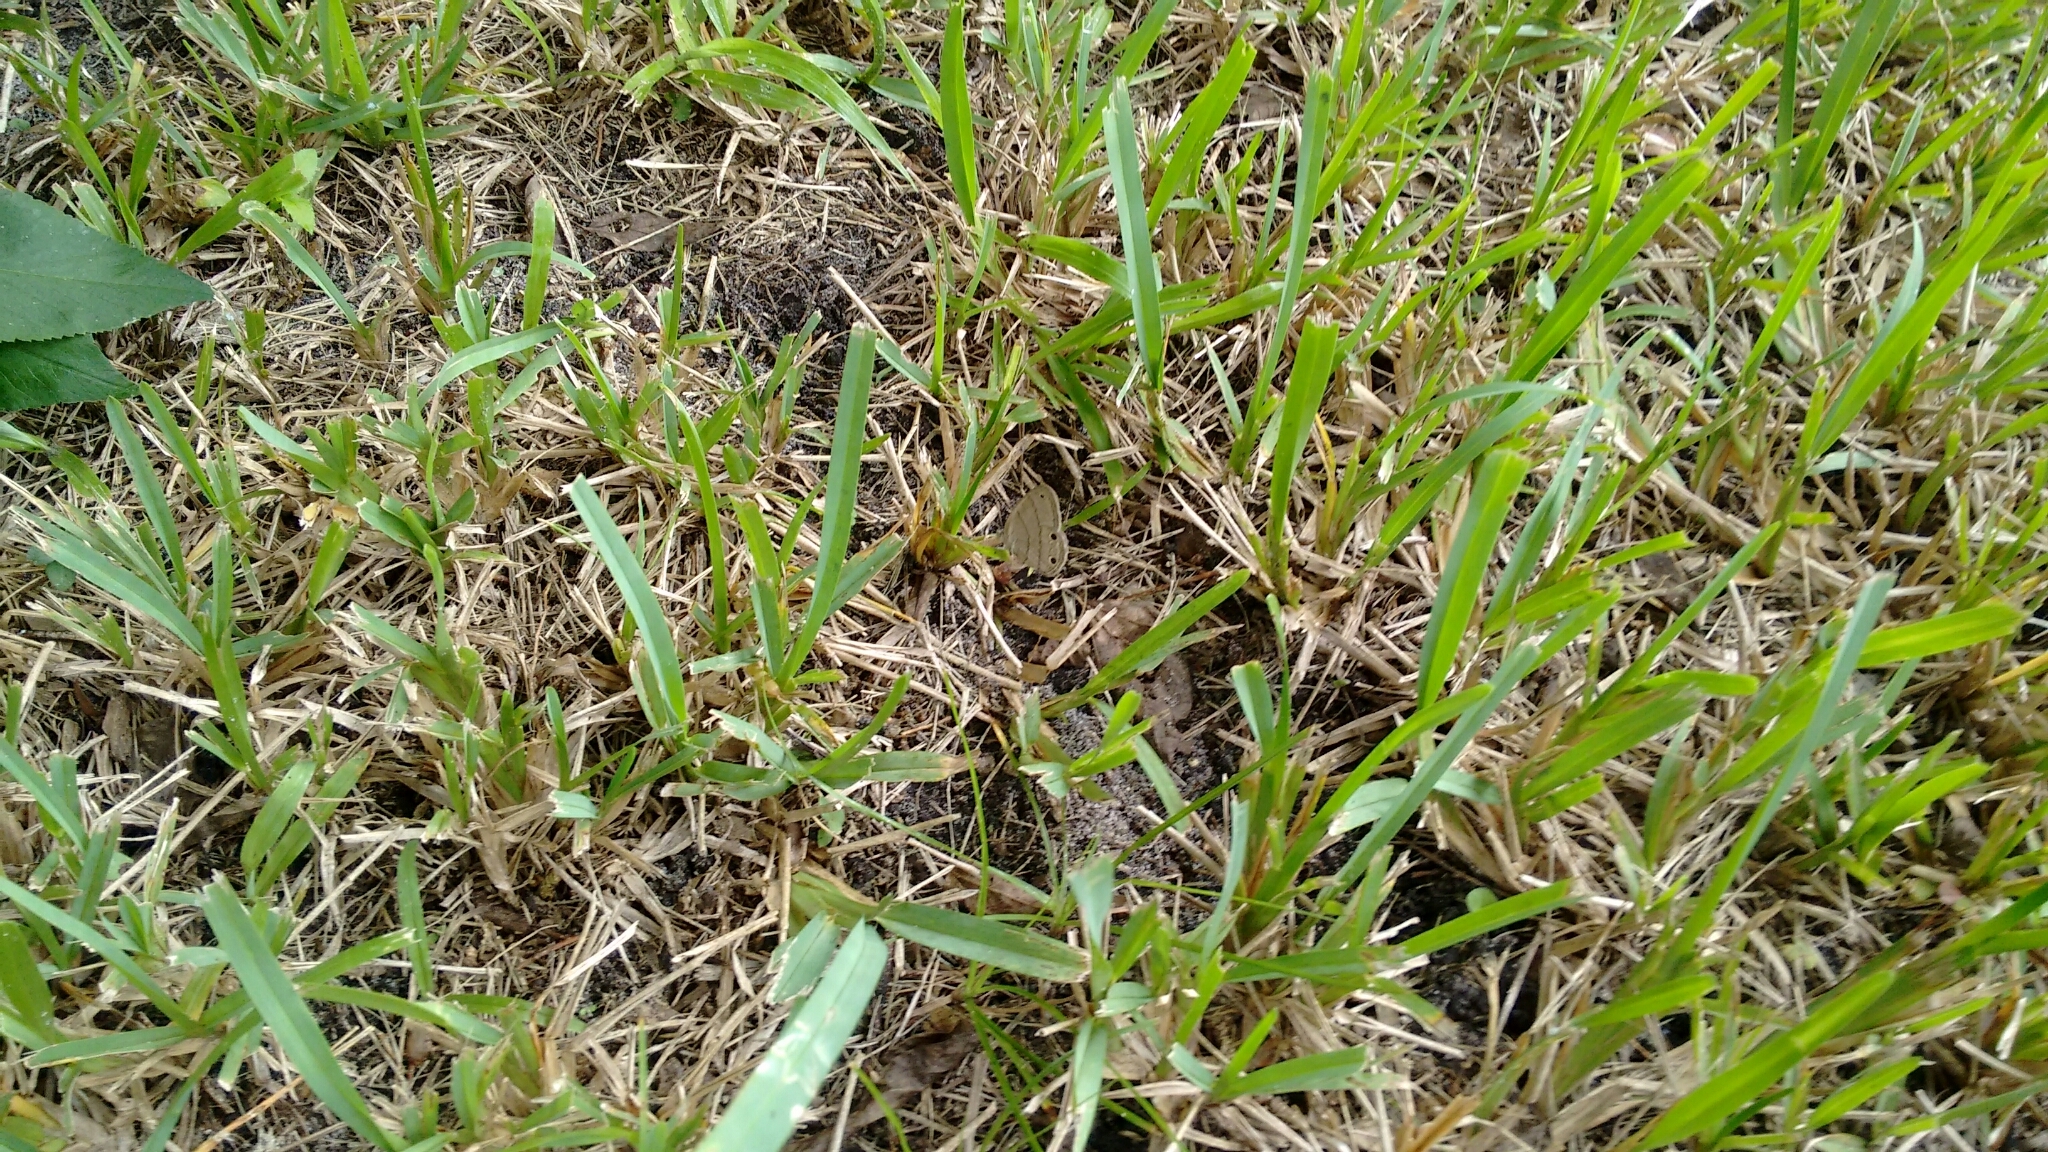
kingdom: Animalia
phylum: Arthropoda
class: Insecta
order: Lepidoptera
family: Nymphalidae
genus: Hermeuptychia
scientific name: Hermeuptychia hermes
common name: Hermes satyr
